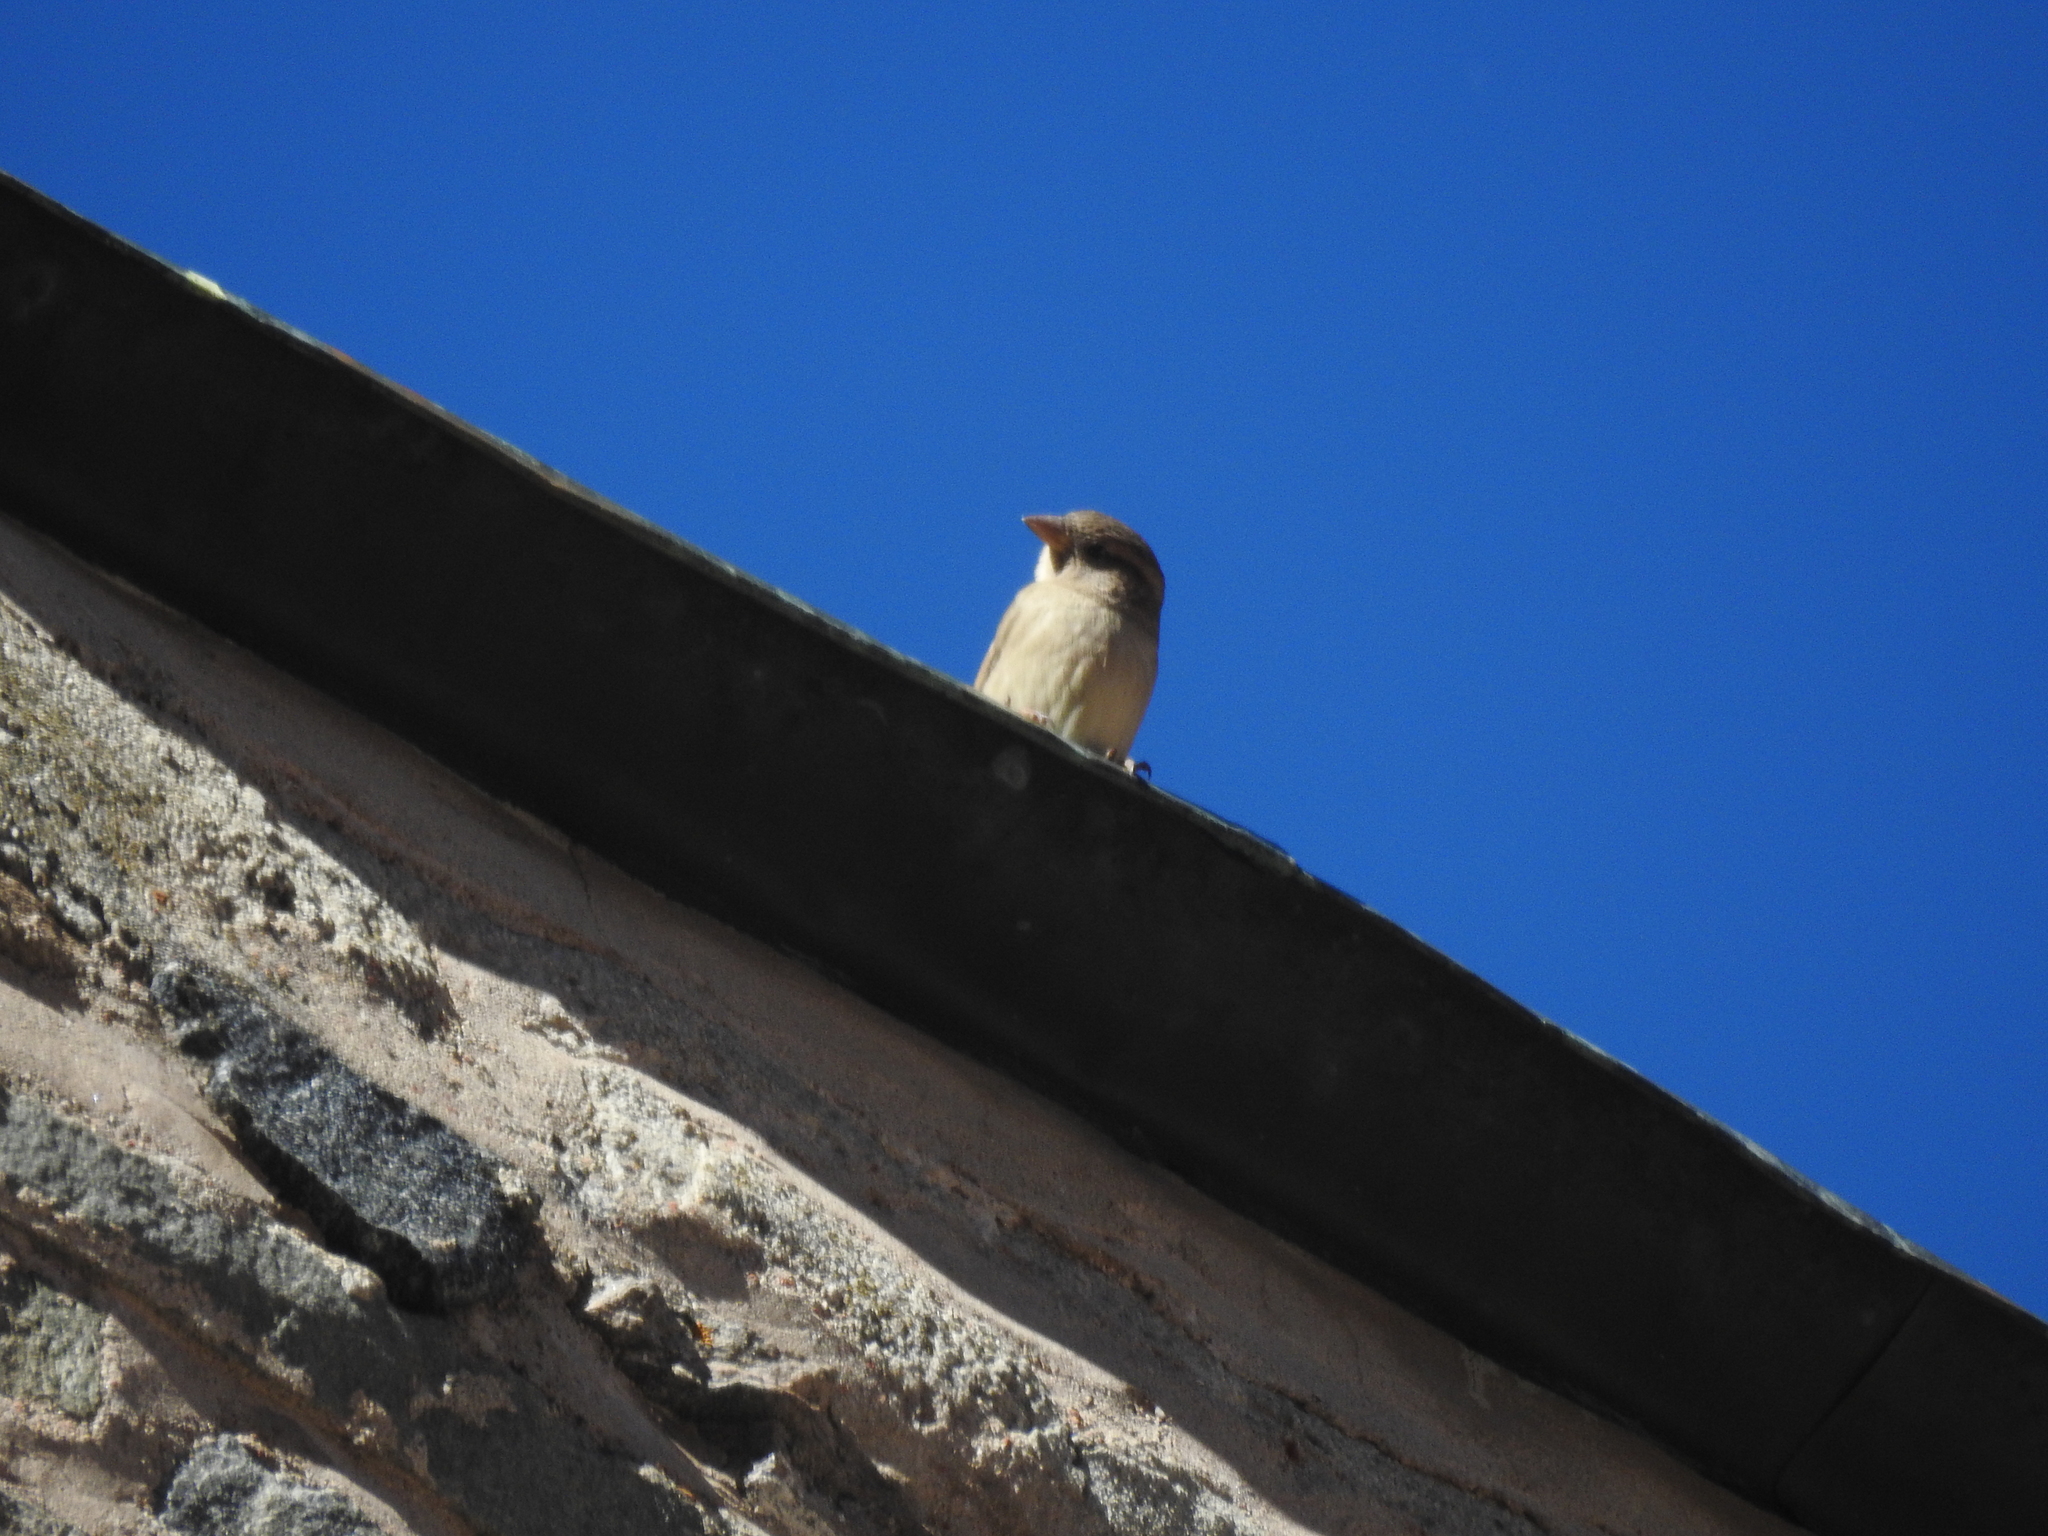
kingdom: Animalia
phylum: Chordata
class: Aves
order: Passeriformes
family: Passeridae
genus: Passer
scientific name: Passer domesticus
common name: House sparrow
